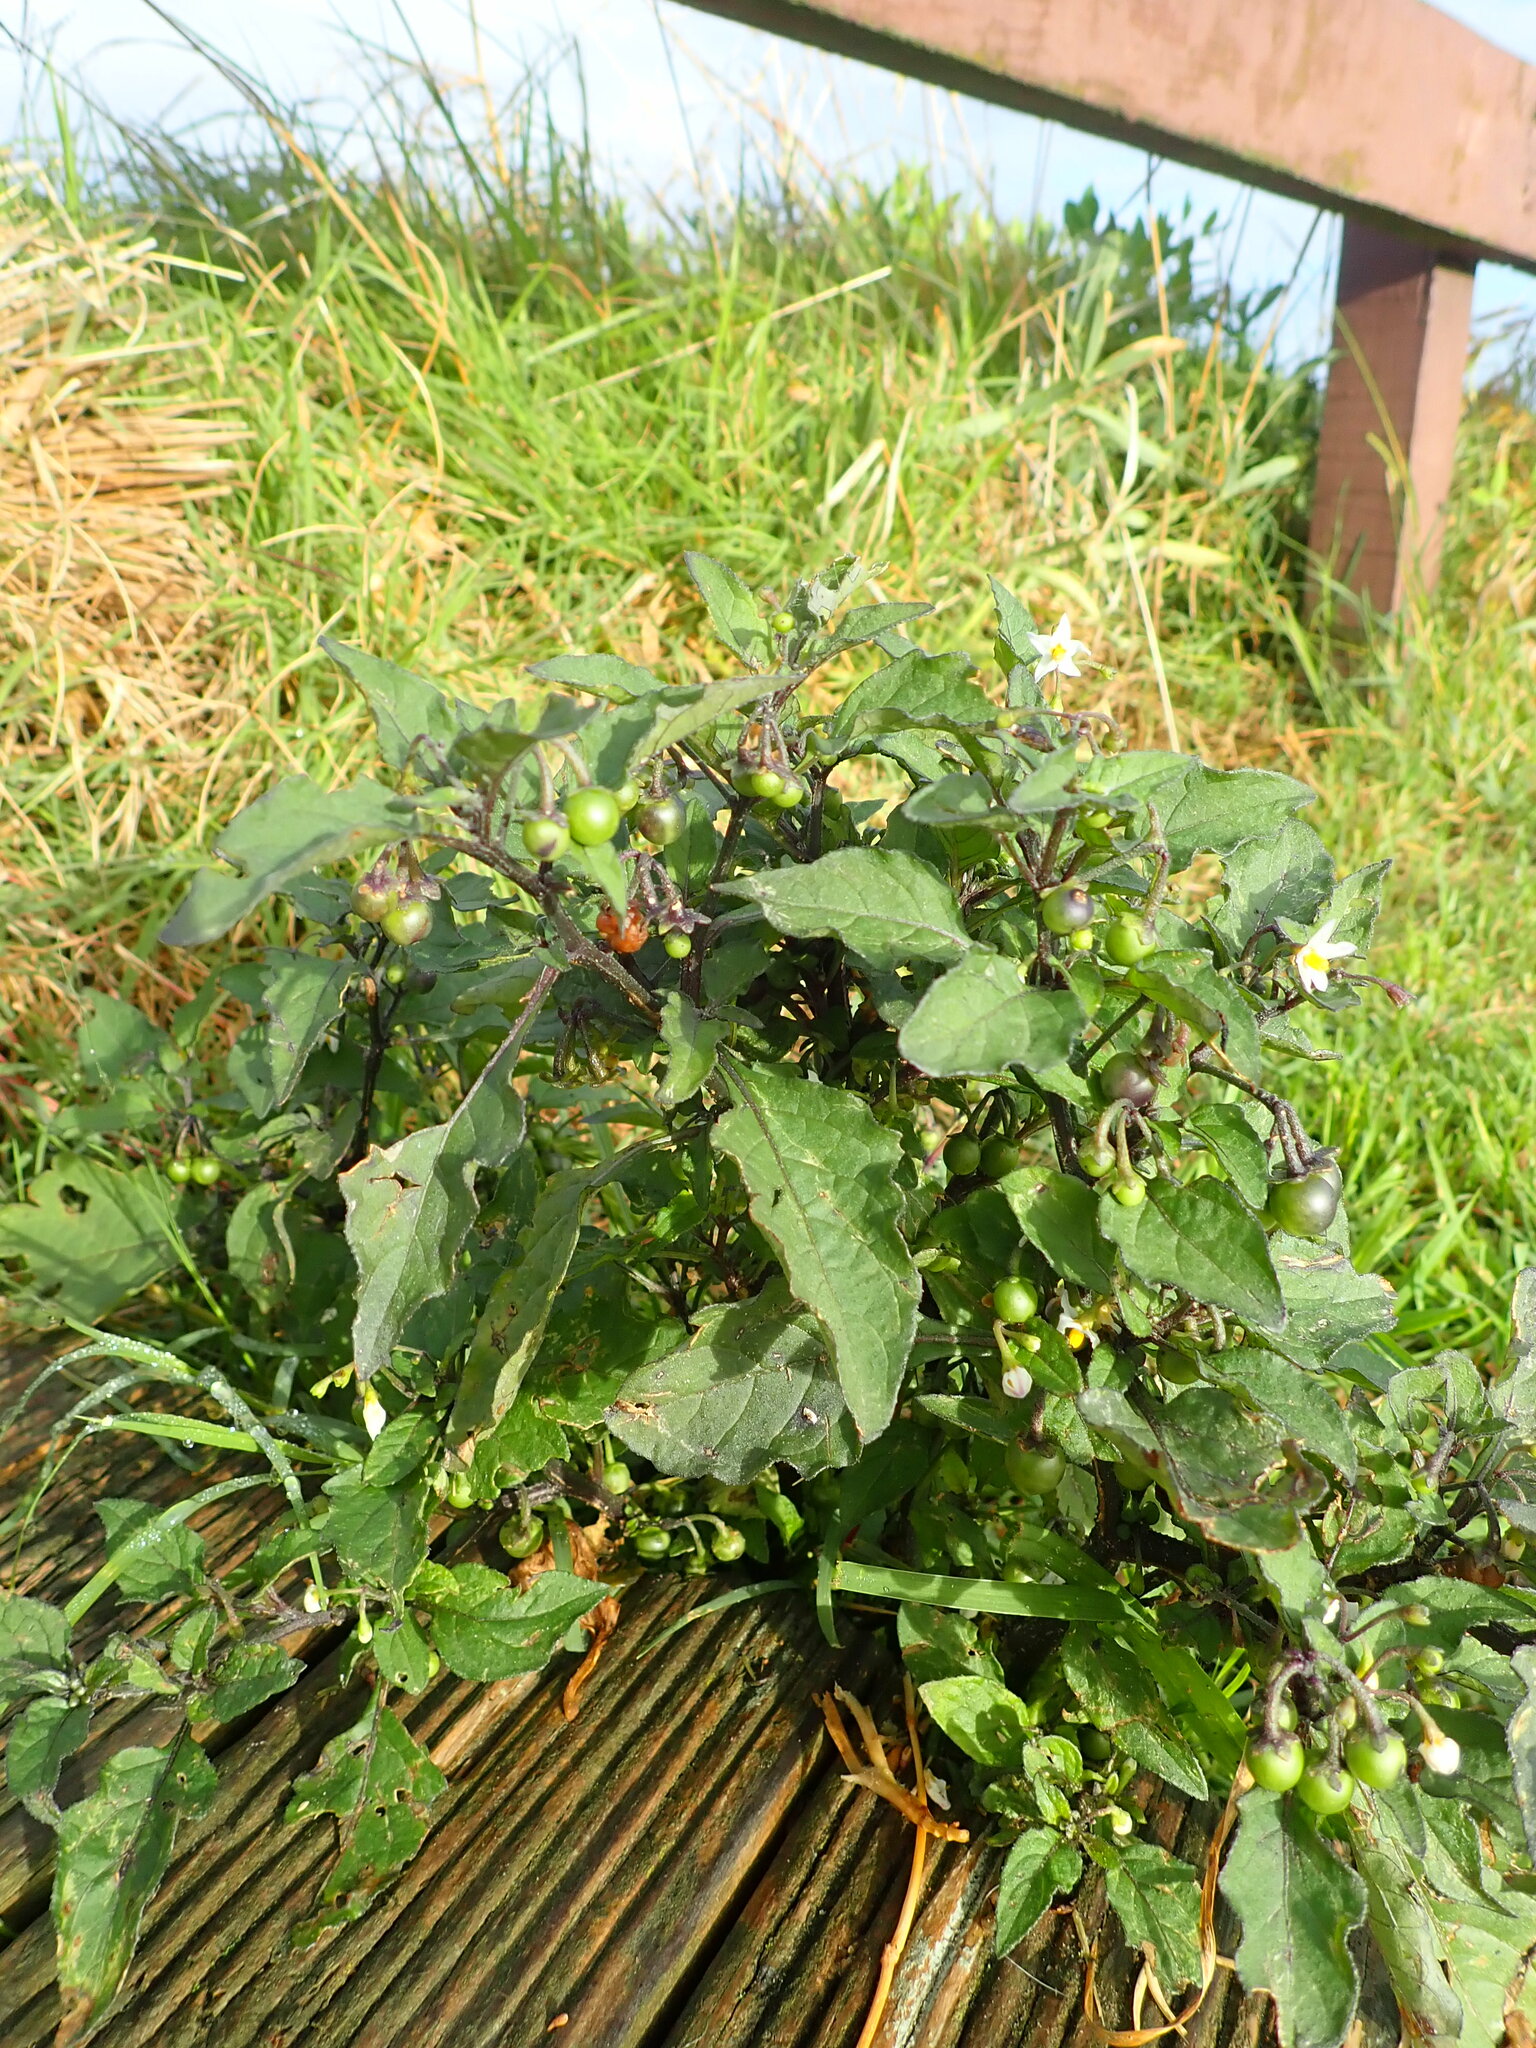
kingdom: Plantae
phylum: Tracheophyta
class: Magnoliopsida
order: Solanales
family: Solanaceae
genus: Solanum
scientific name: Solanum nigrum
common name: Black nightshade
